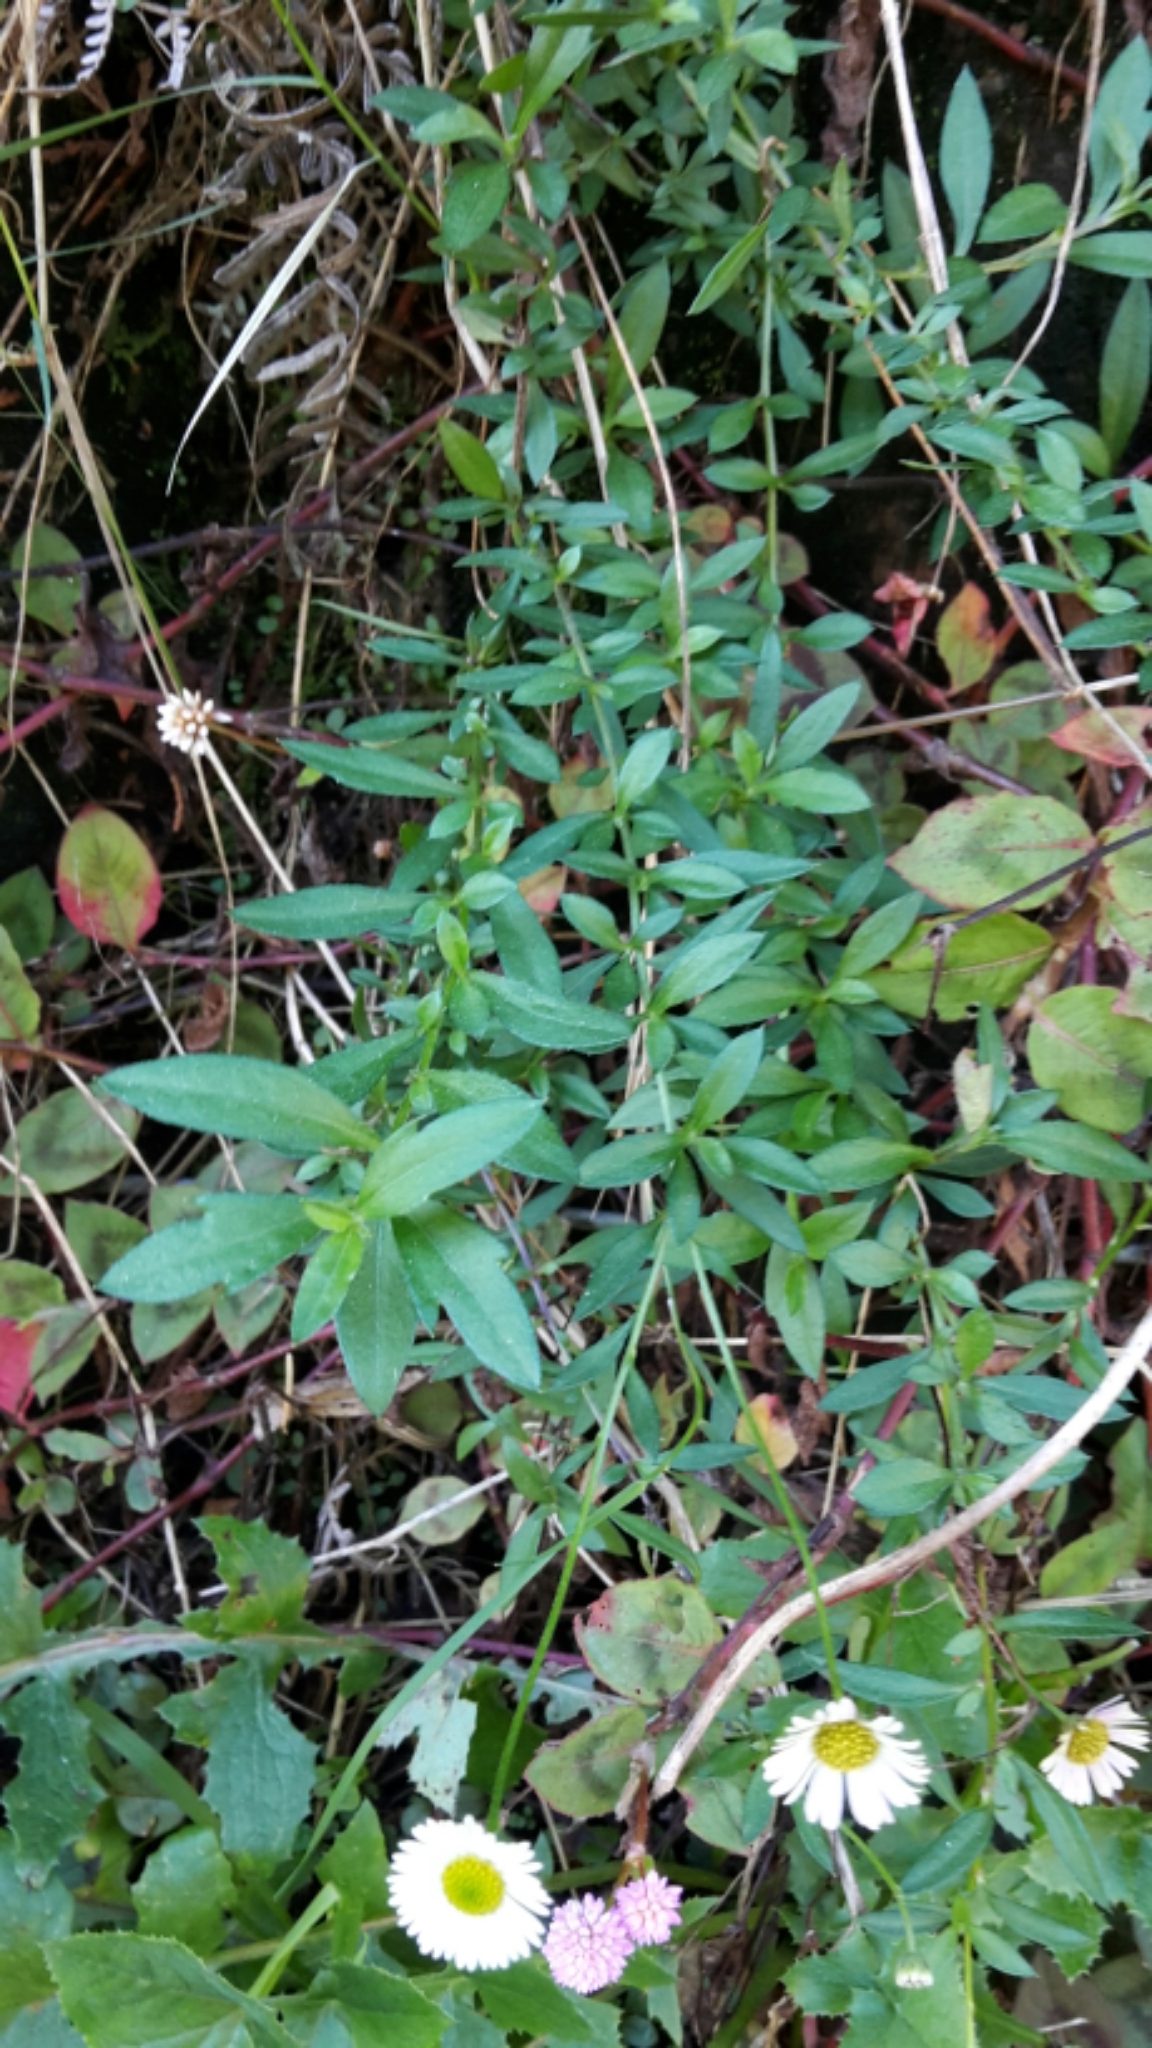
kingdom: Plantae
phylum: Tracheophyta
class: Magnoliopsida
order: Asterales
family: Asteraceae
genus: Erigeron
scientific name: Erigeron karvinskianus
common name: Mexican fleabane
